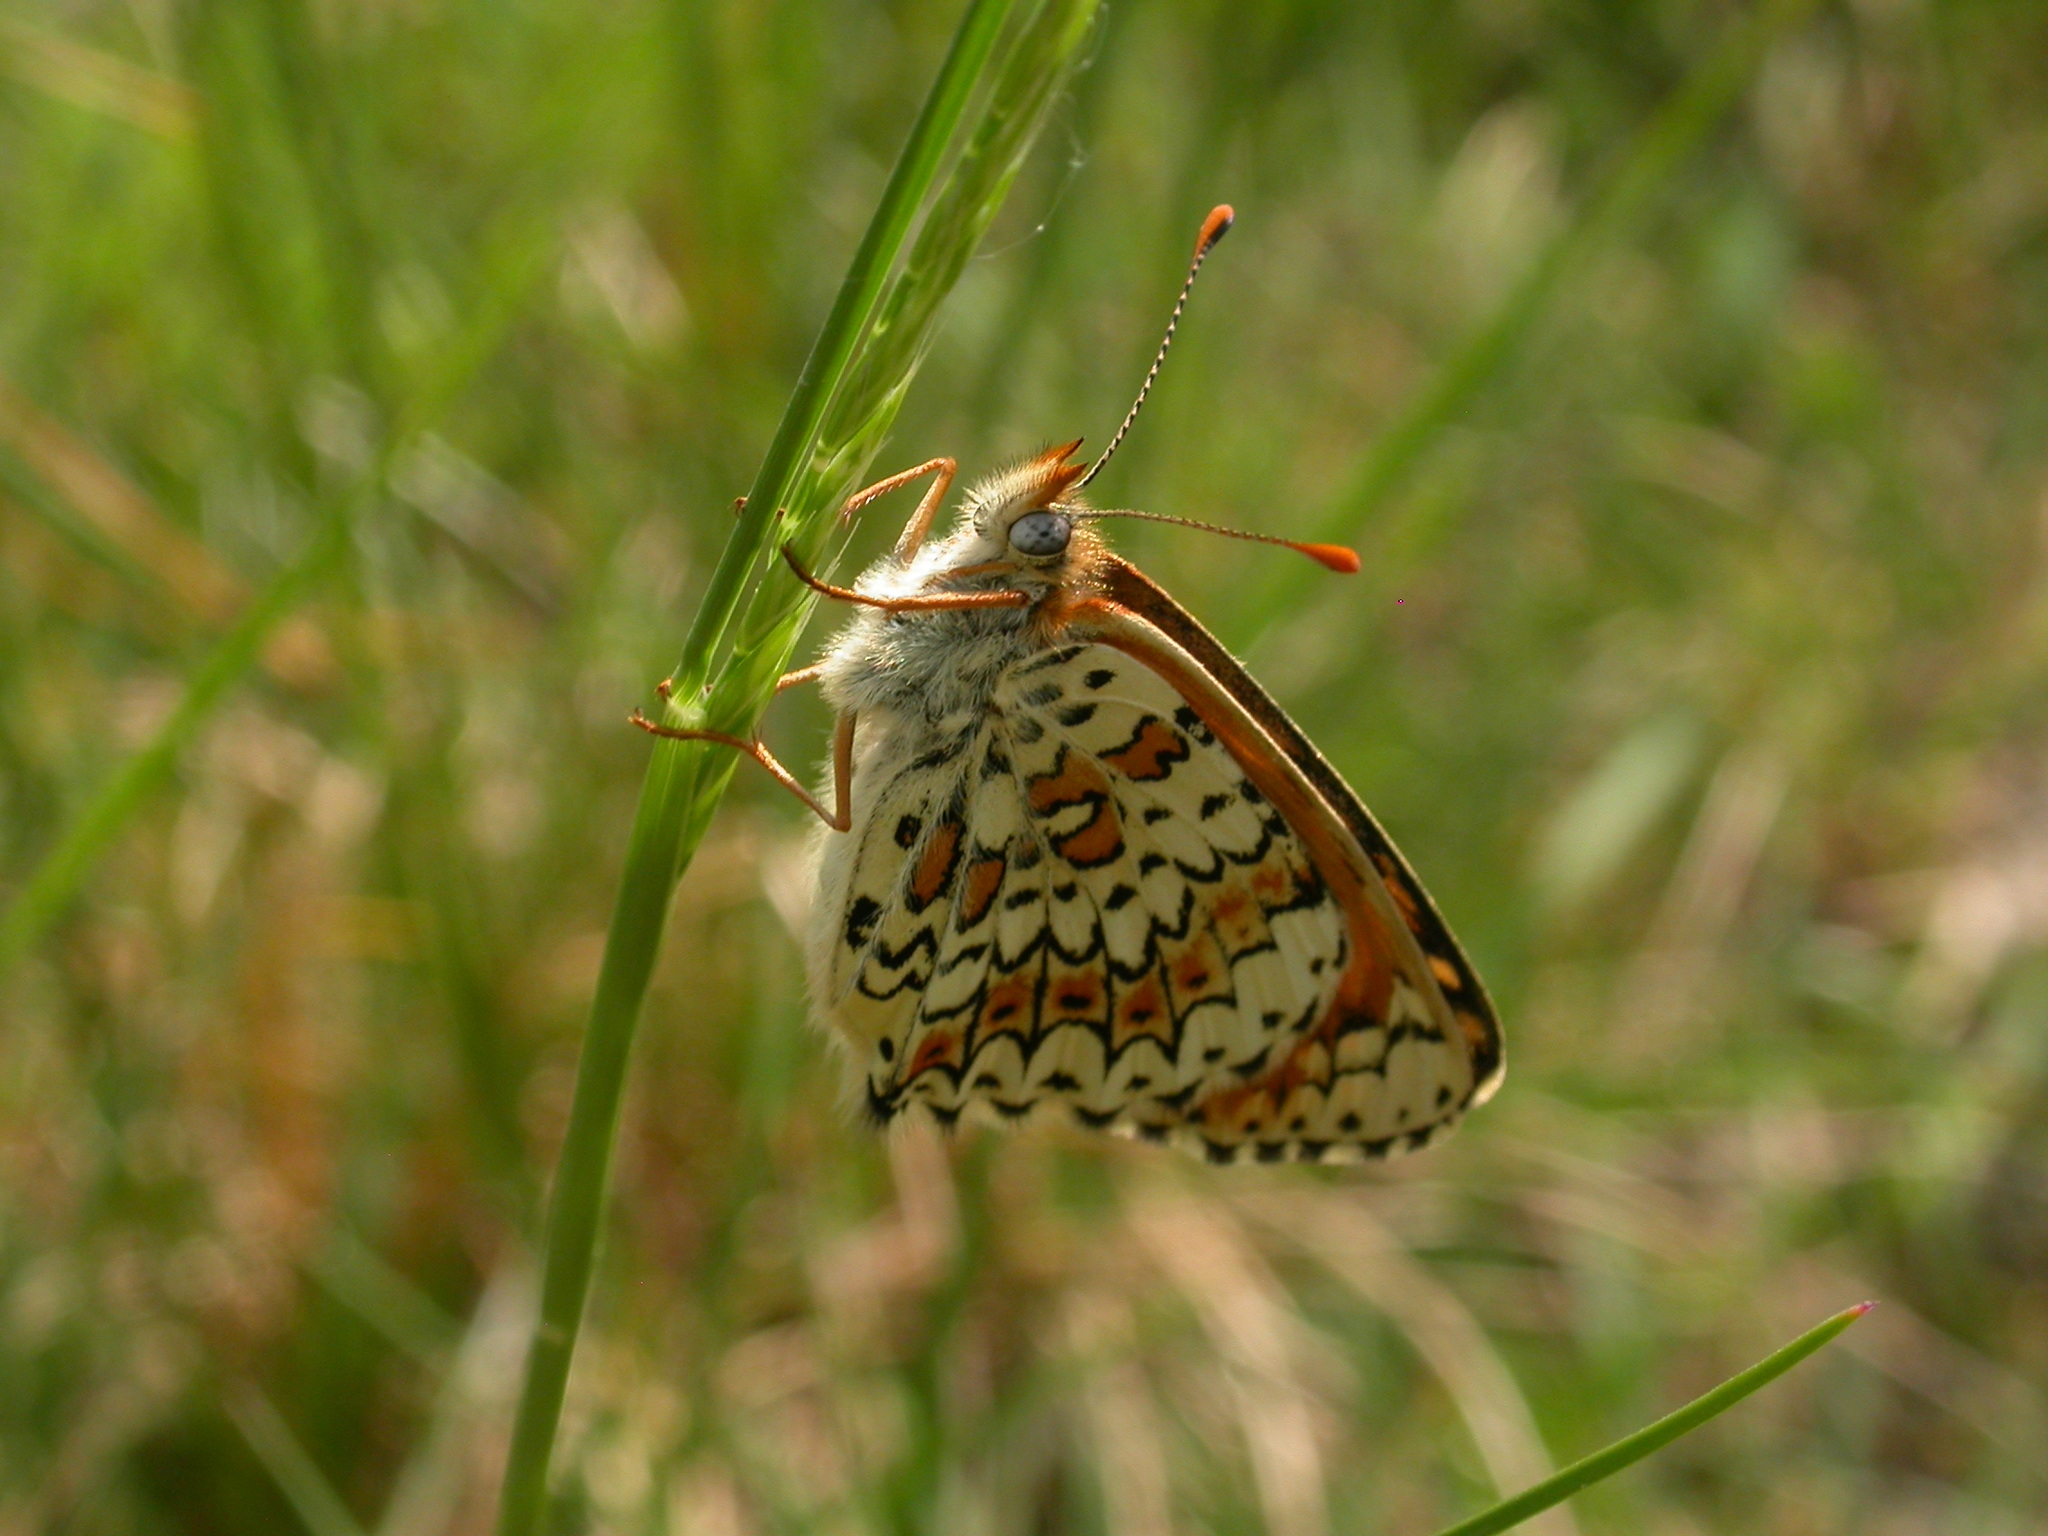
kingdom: Animalia
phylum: Arthropoda
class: Insecta
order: Lepidoptera
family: Nymphalidae
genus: Melitaea
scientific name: Melitaea cinxia
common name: Glanville fritillary
